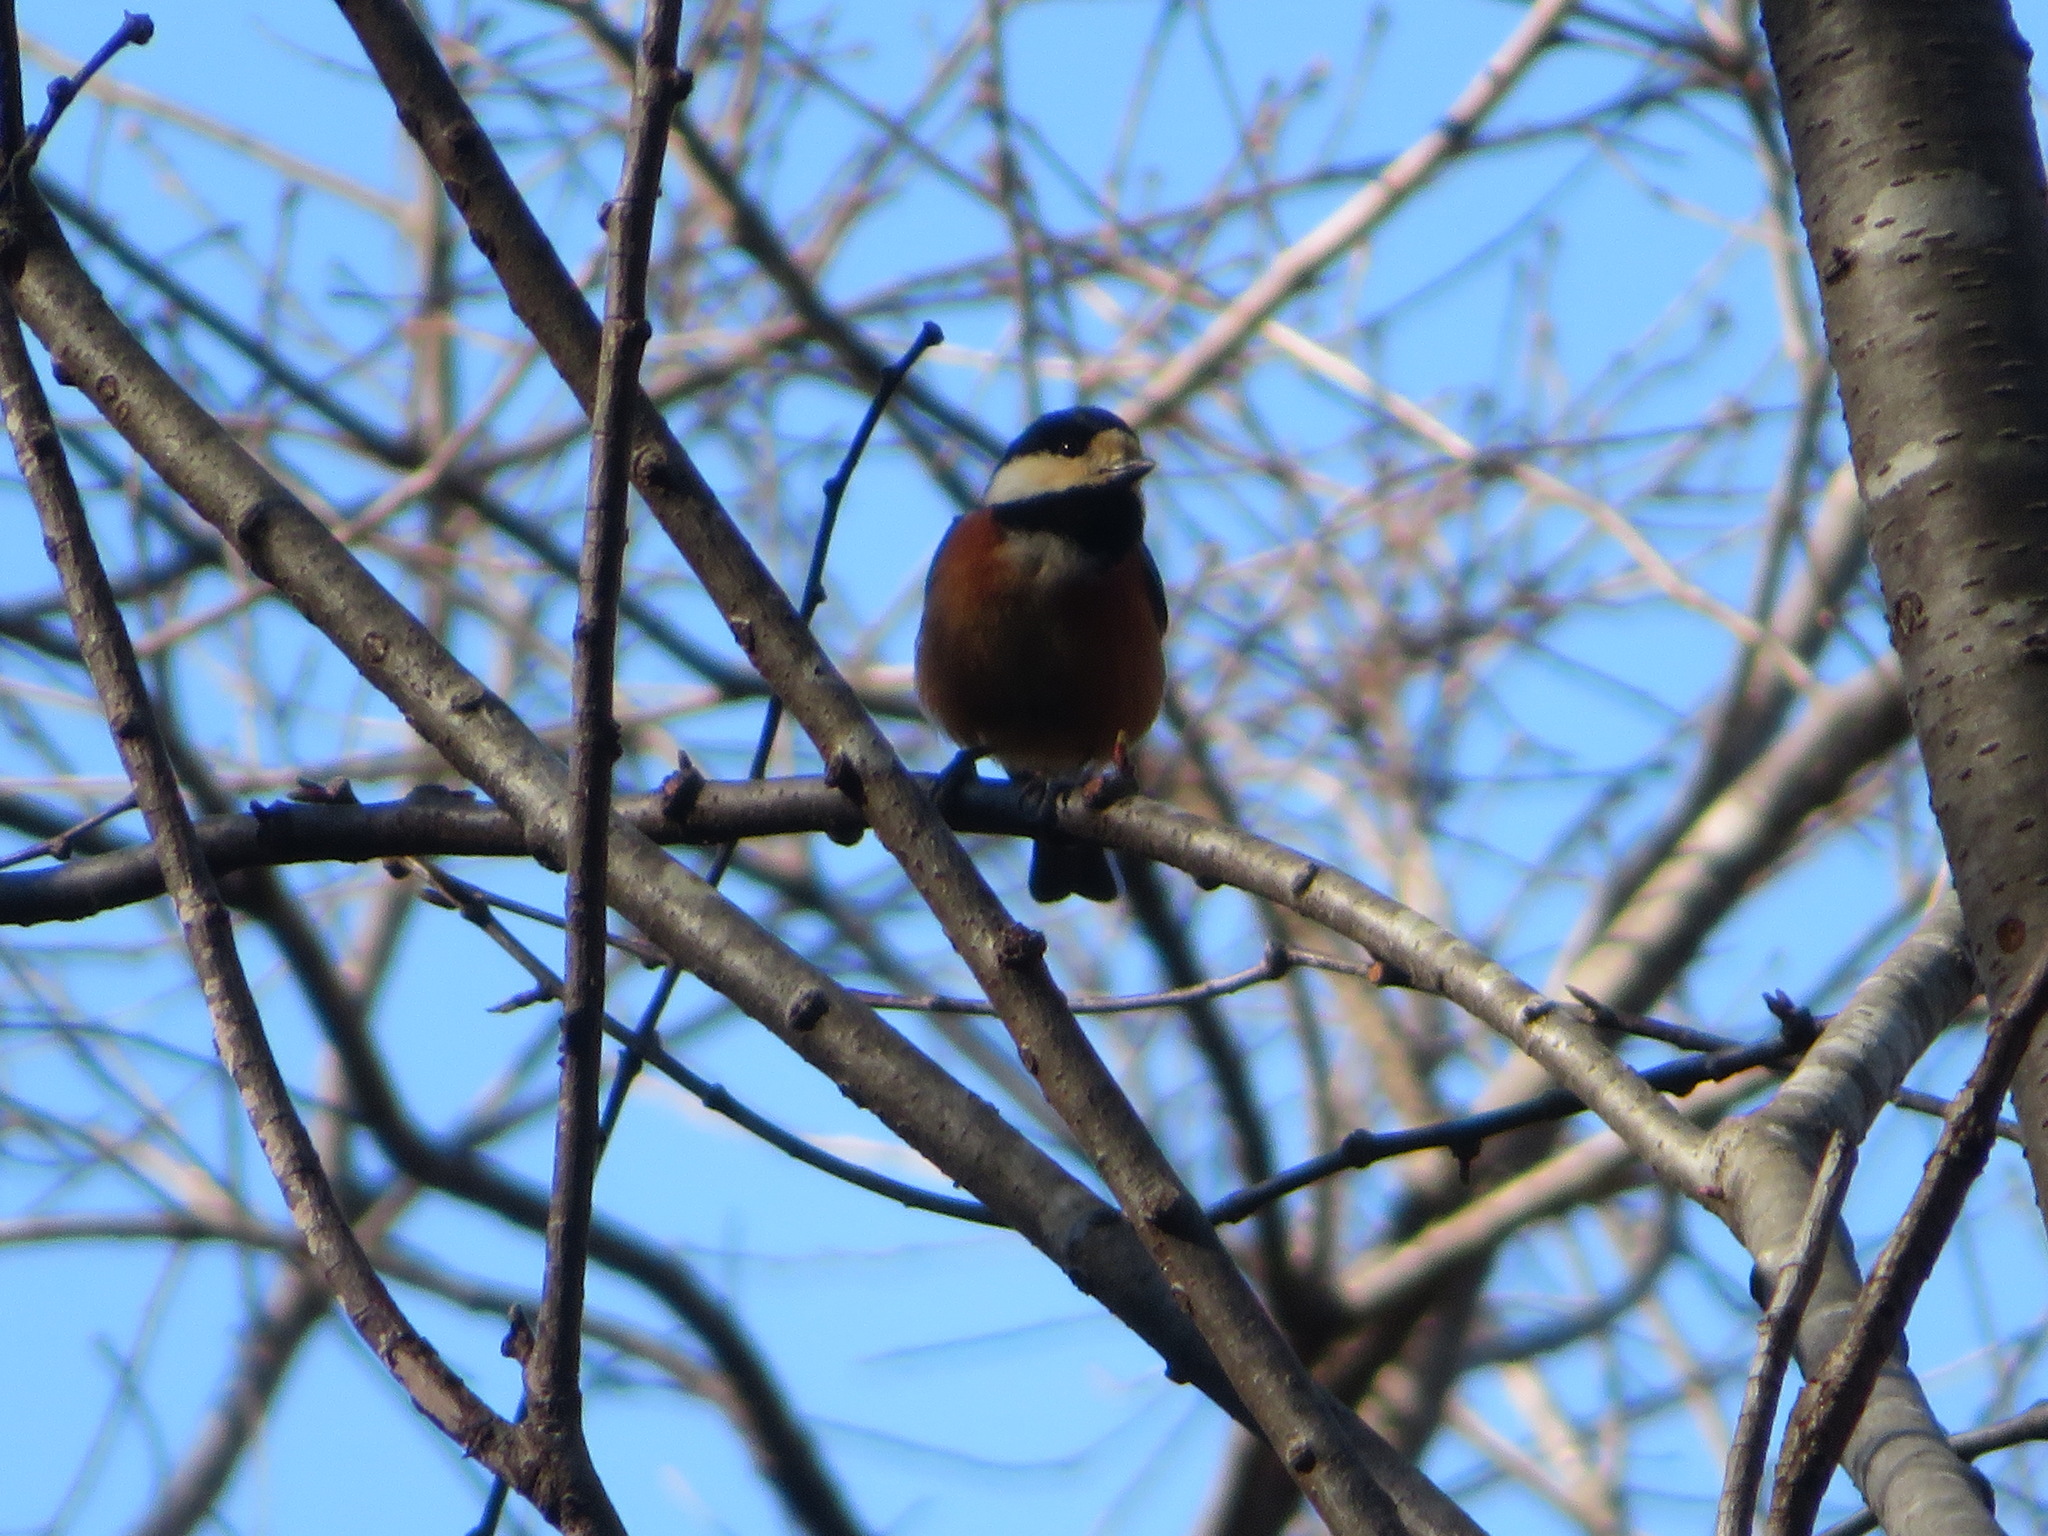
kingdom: Animalia
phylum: Chordata
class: Aves
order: Passeriformes
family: Paridae
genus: Poecile
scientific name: Poecile varius
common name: Varied tit
